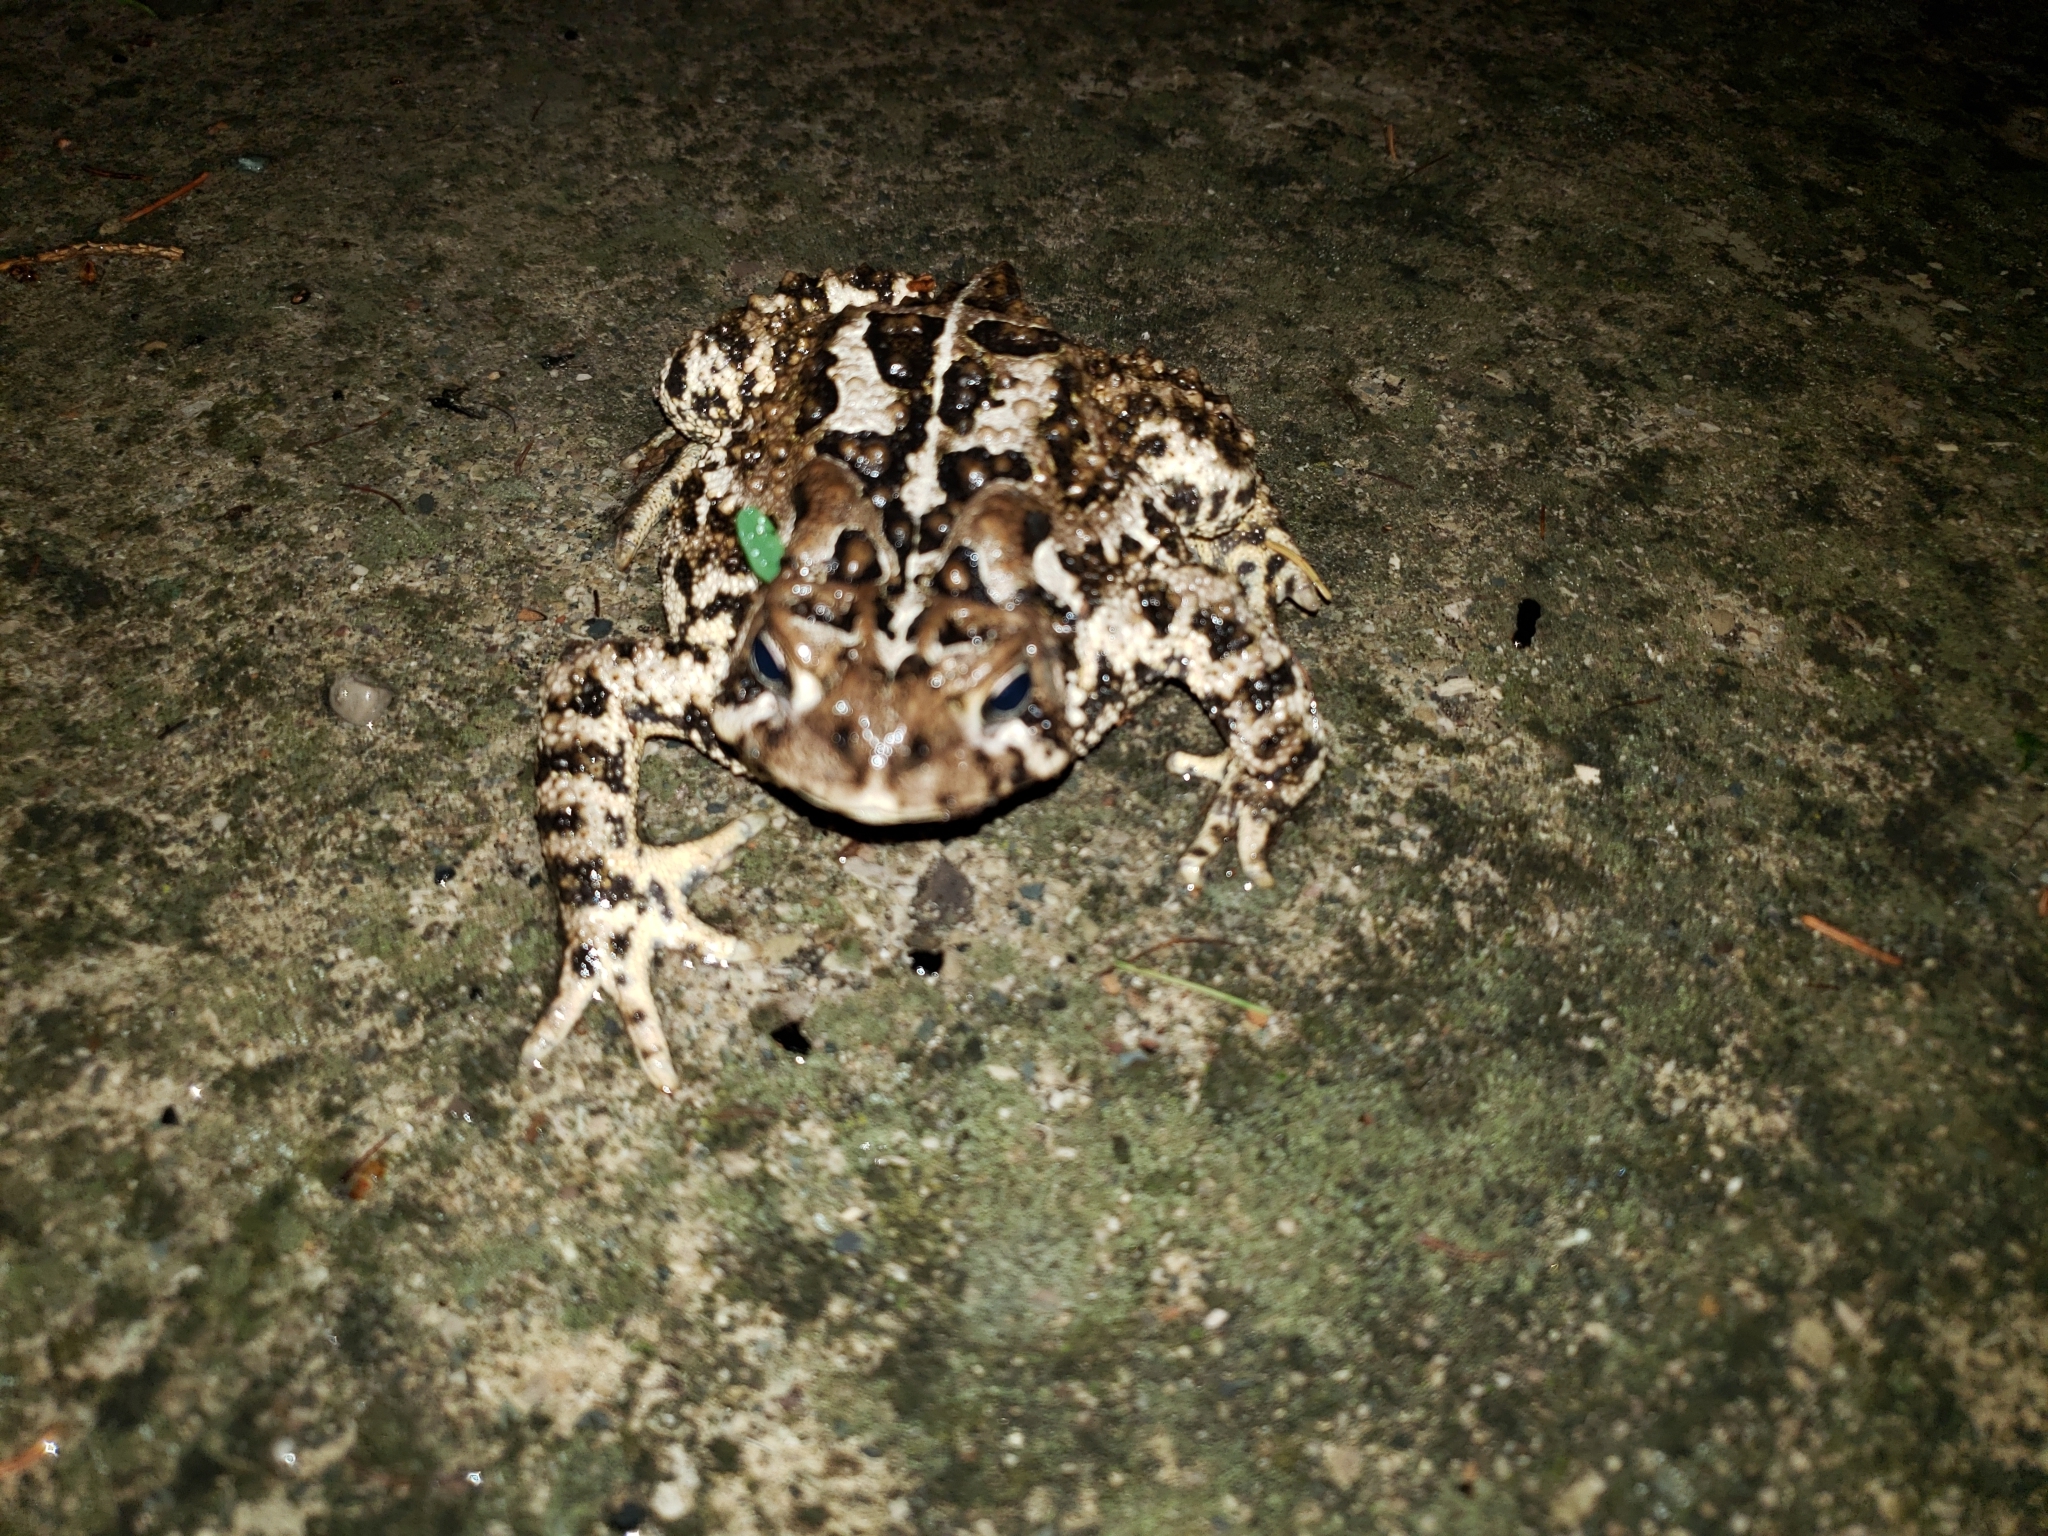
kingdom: Animalia
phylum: Chordata
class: Amphibia
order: Anura
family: Bufonidae
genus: Anaxyrus
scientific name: Anaxyrus americanus
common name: American toad
